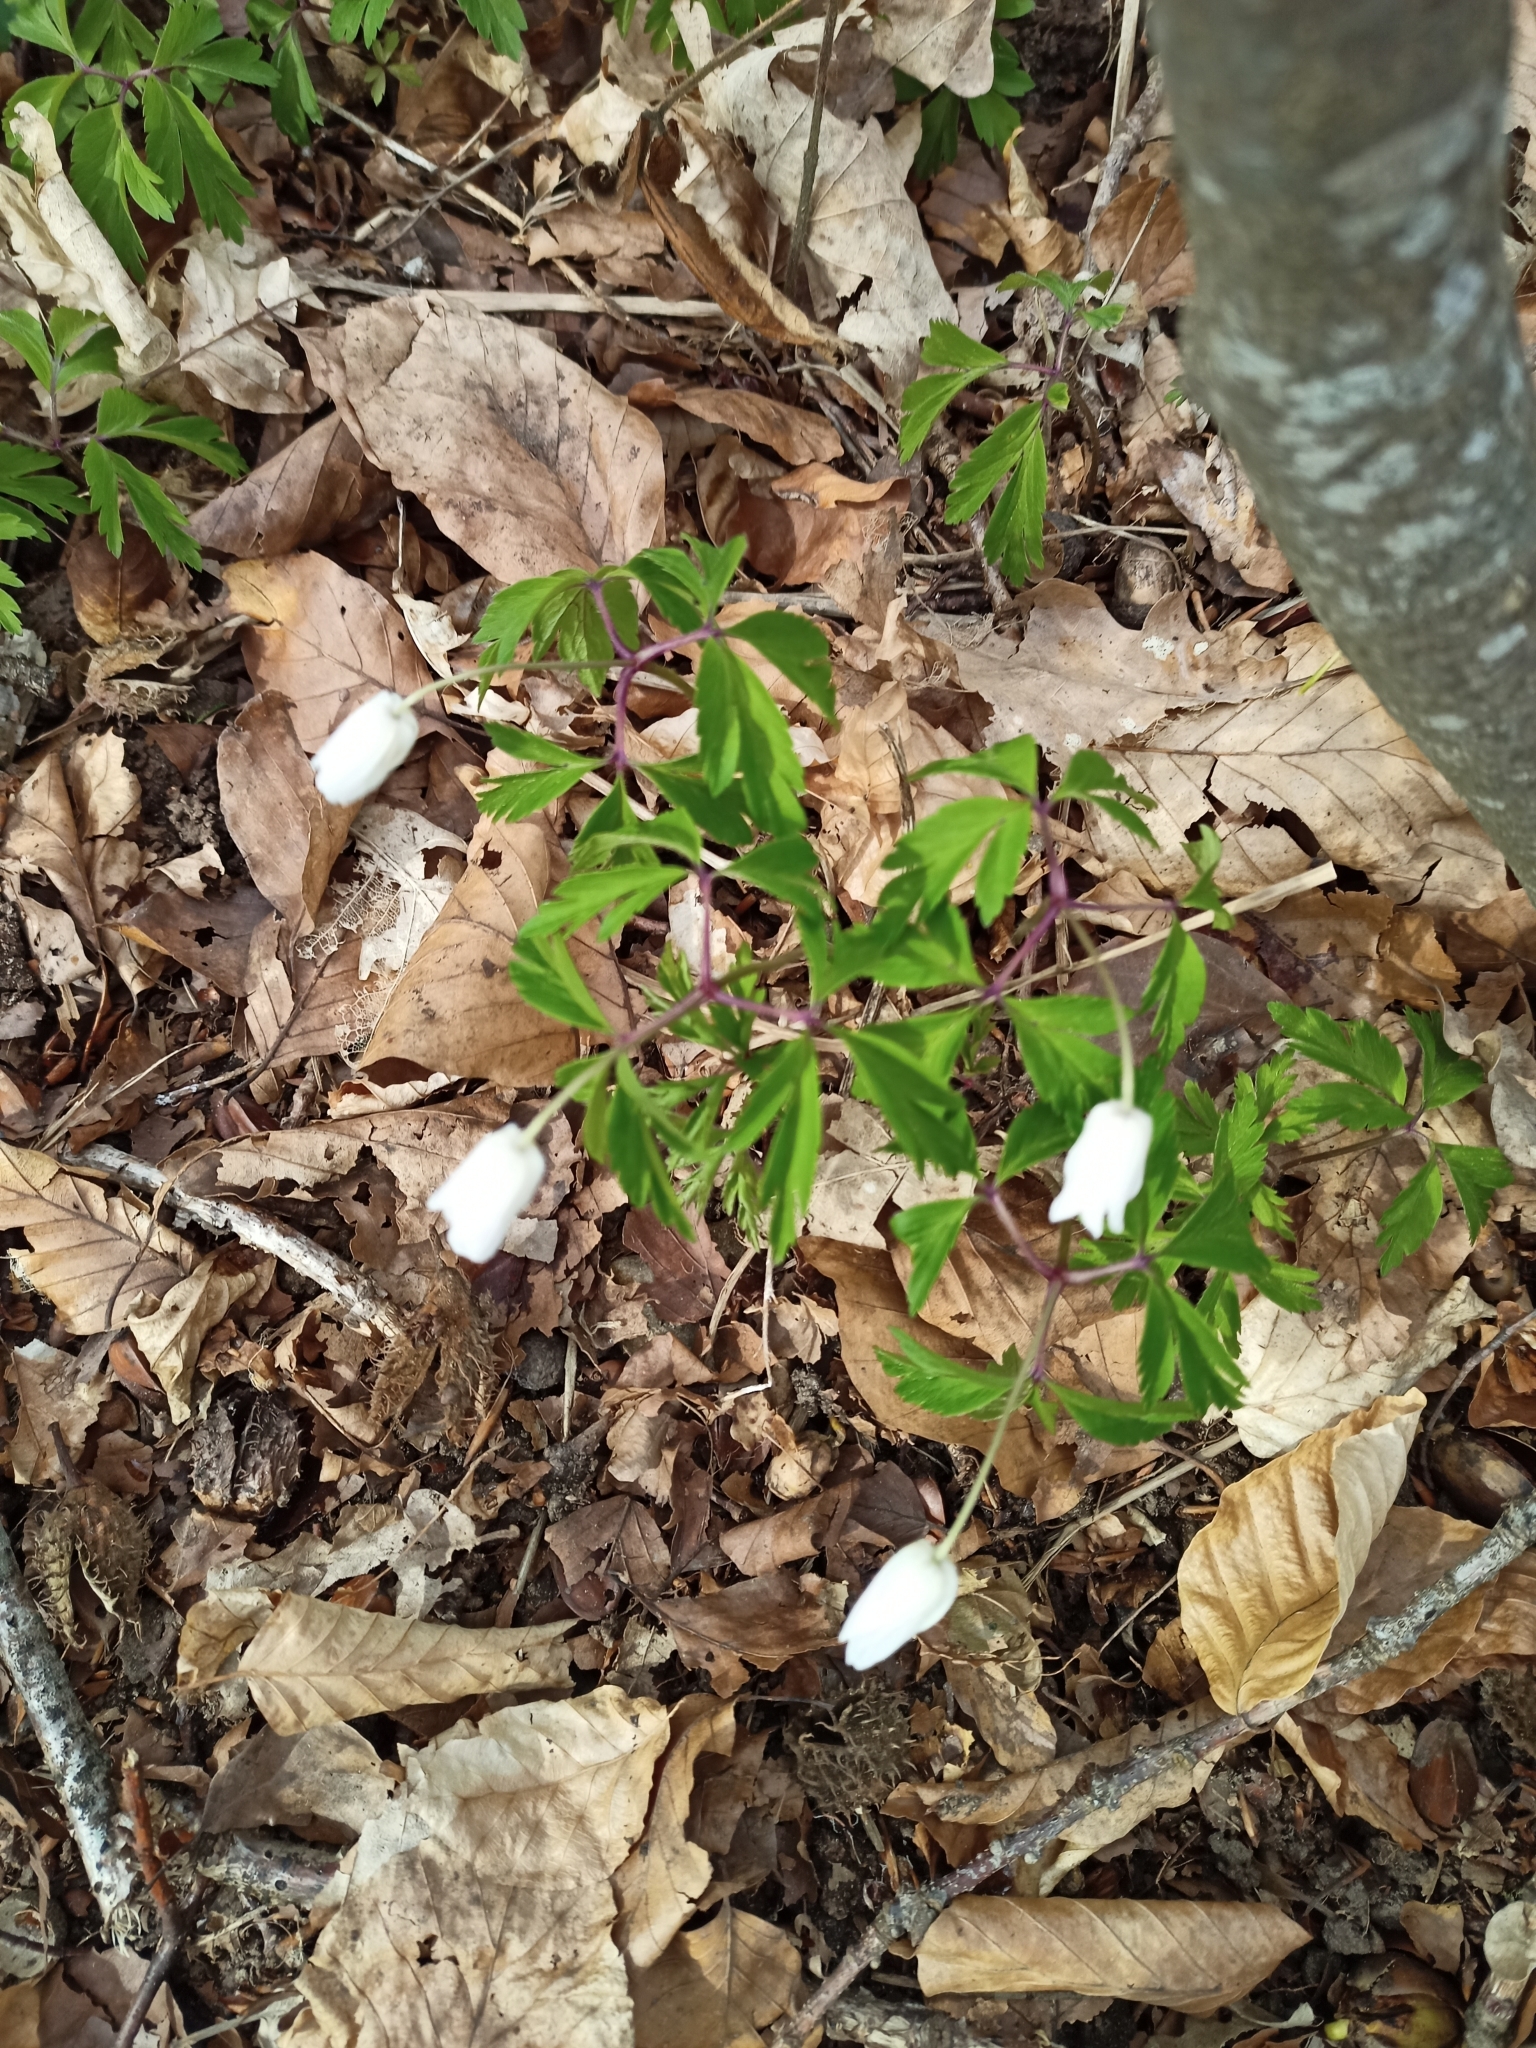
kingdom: Plantae
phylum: Tracheophyta
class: Magnoliopsida
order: Ranunculales
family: Ranunculaceae
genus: Anemone
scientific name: Anemone nemorosa
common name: Wood anemone
